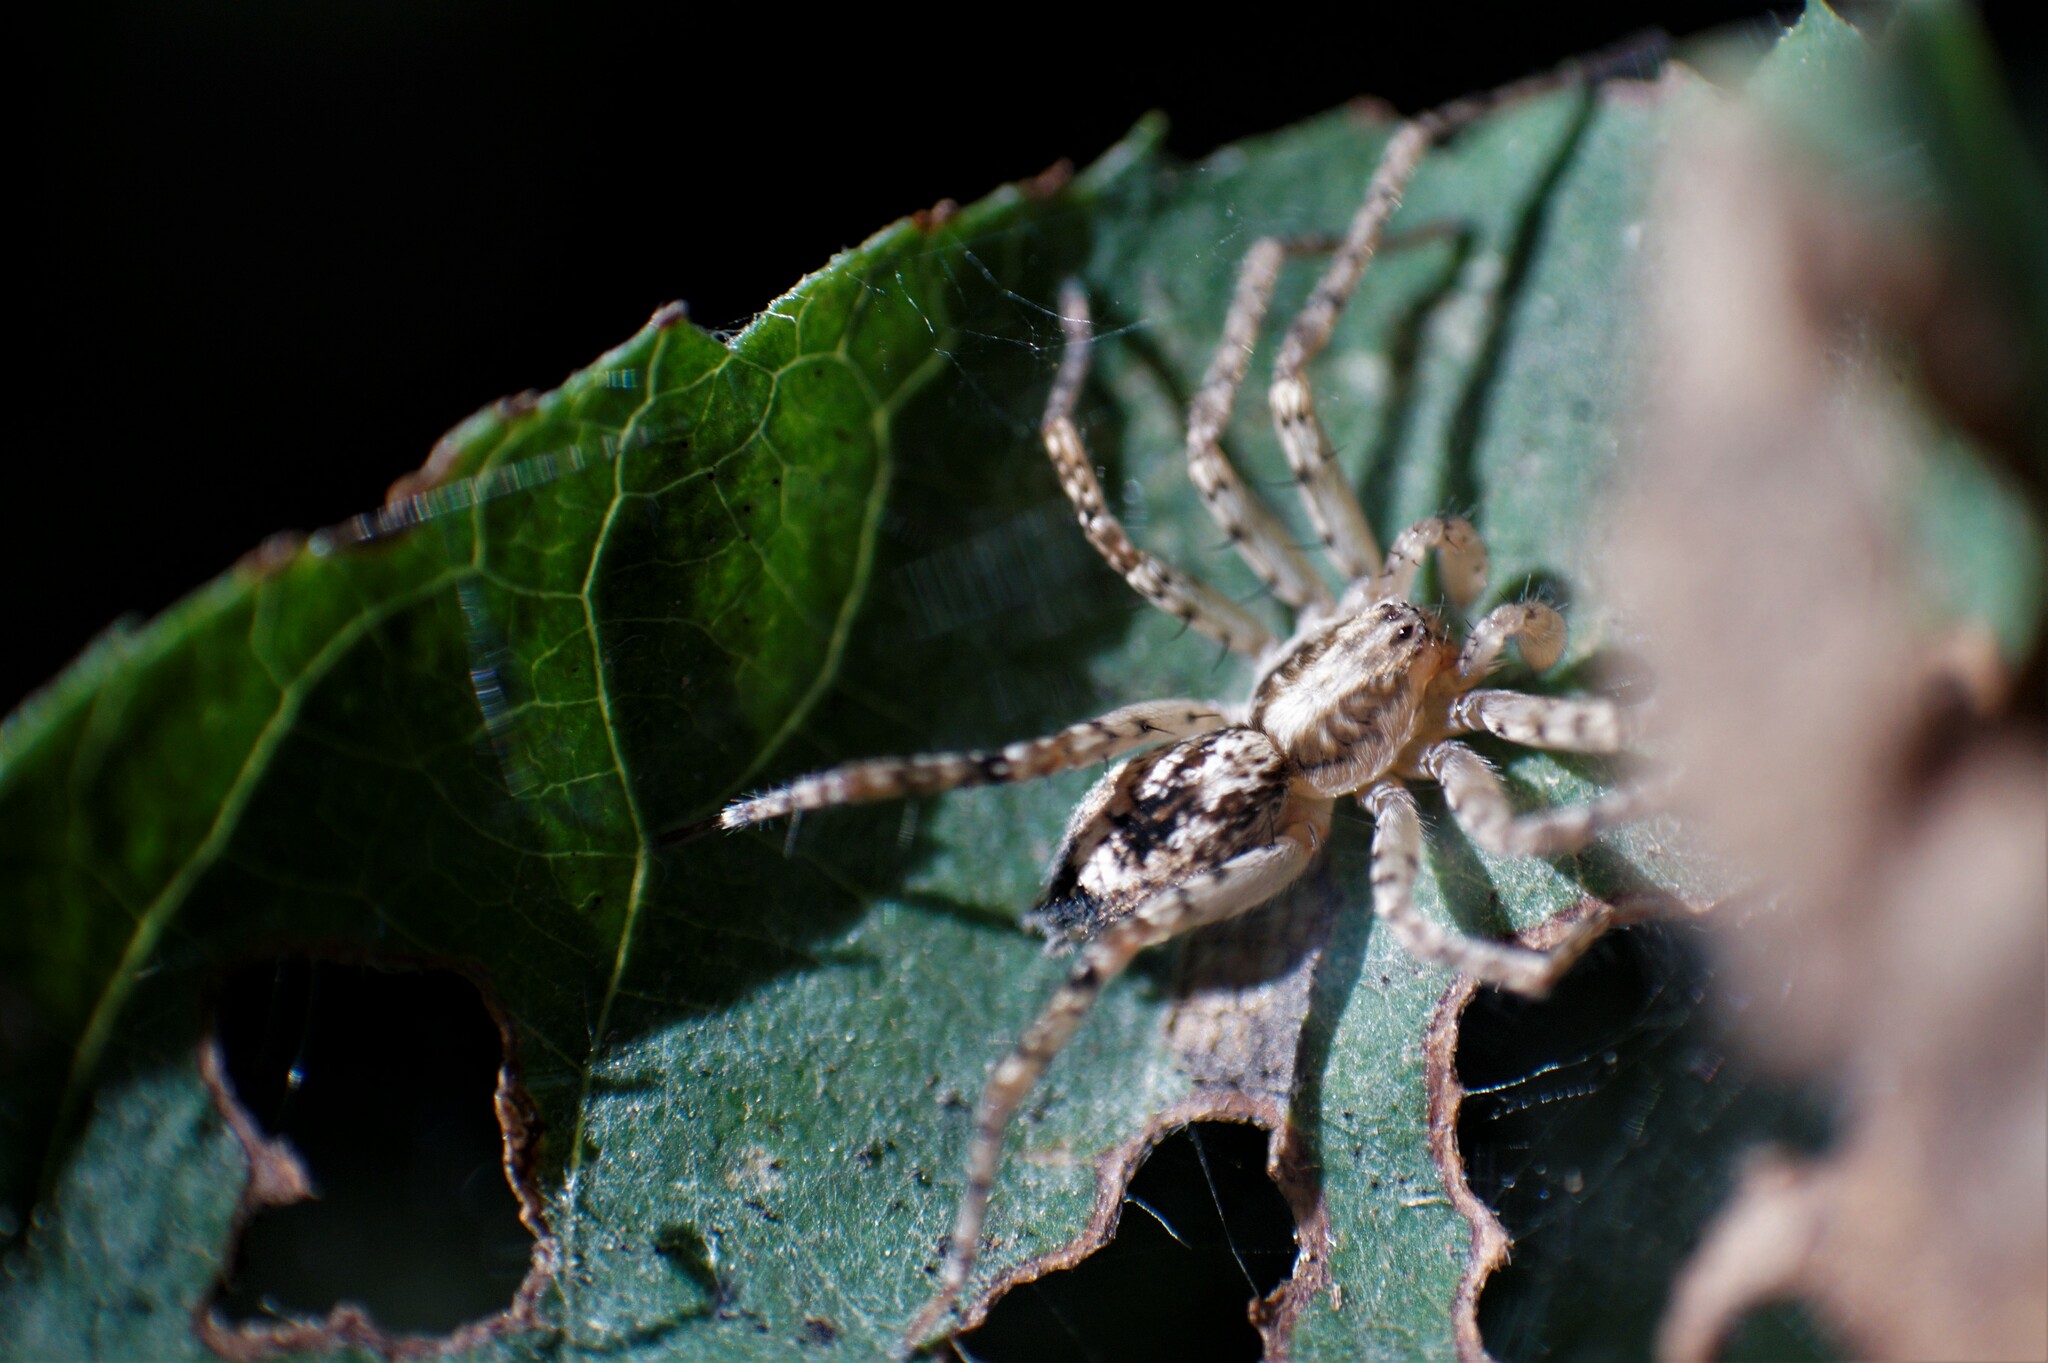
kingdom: Animalia
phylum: Arthropoda
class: Arachnida
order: Araneae
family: Anyphaenidae
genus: Anyphaena
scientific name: Anyphaena accentuata
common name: Buzzing spider
